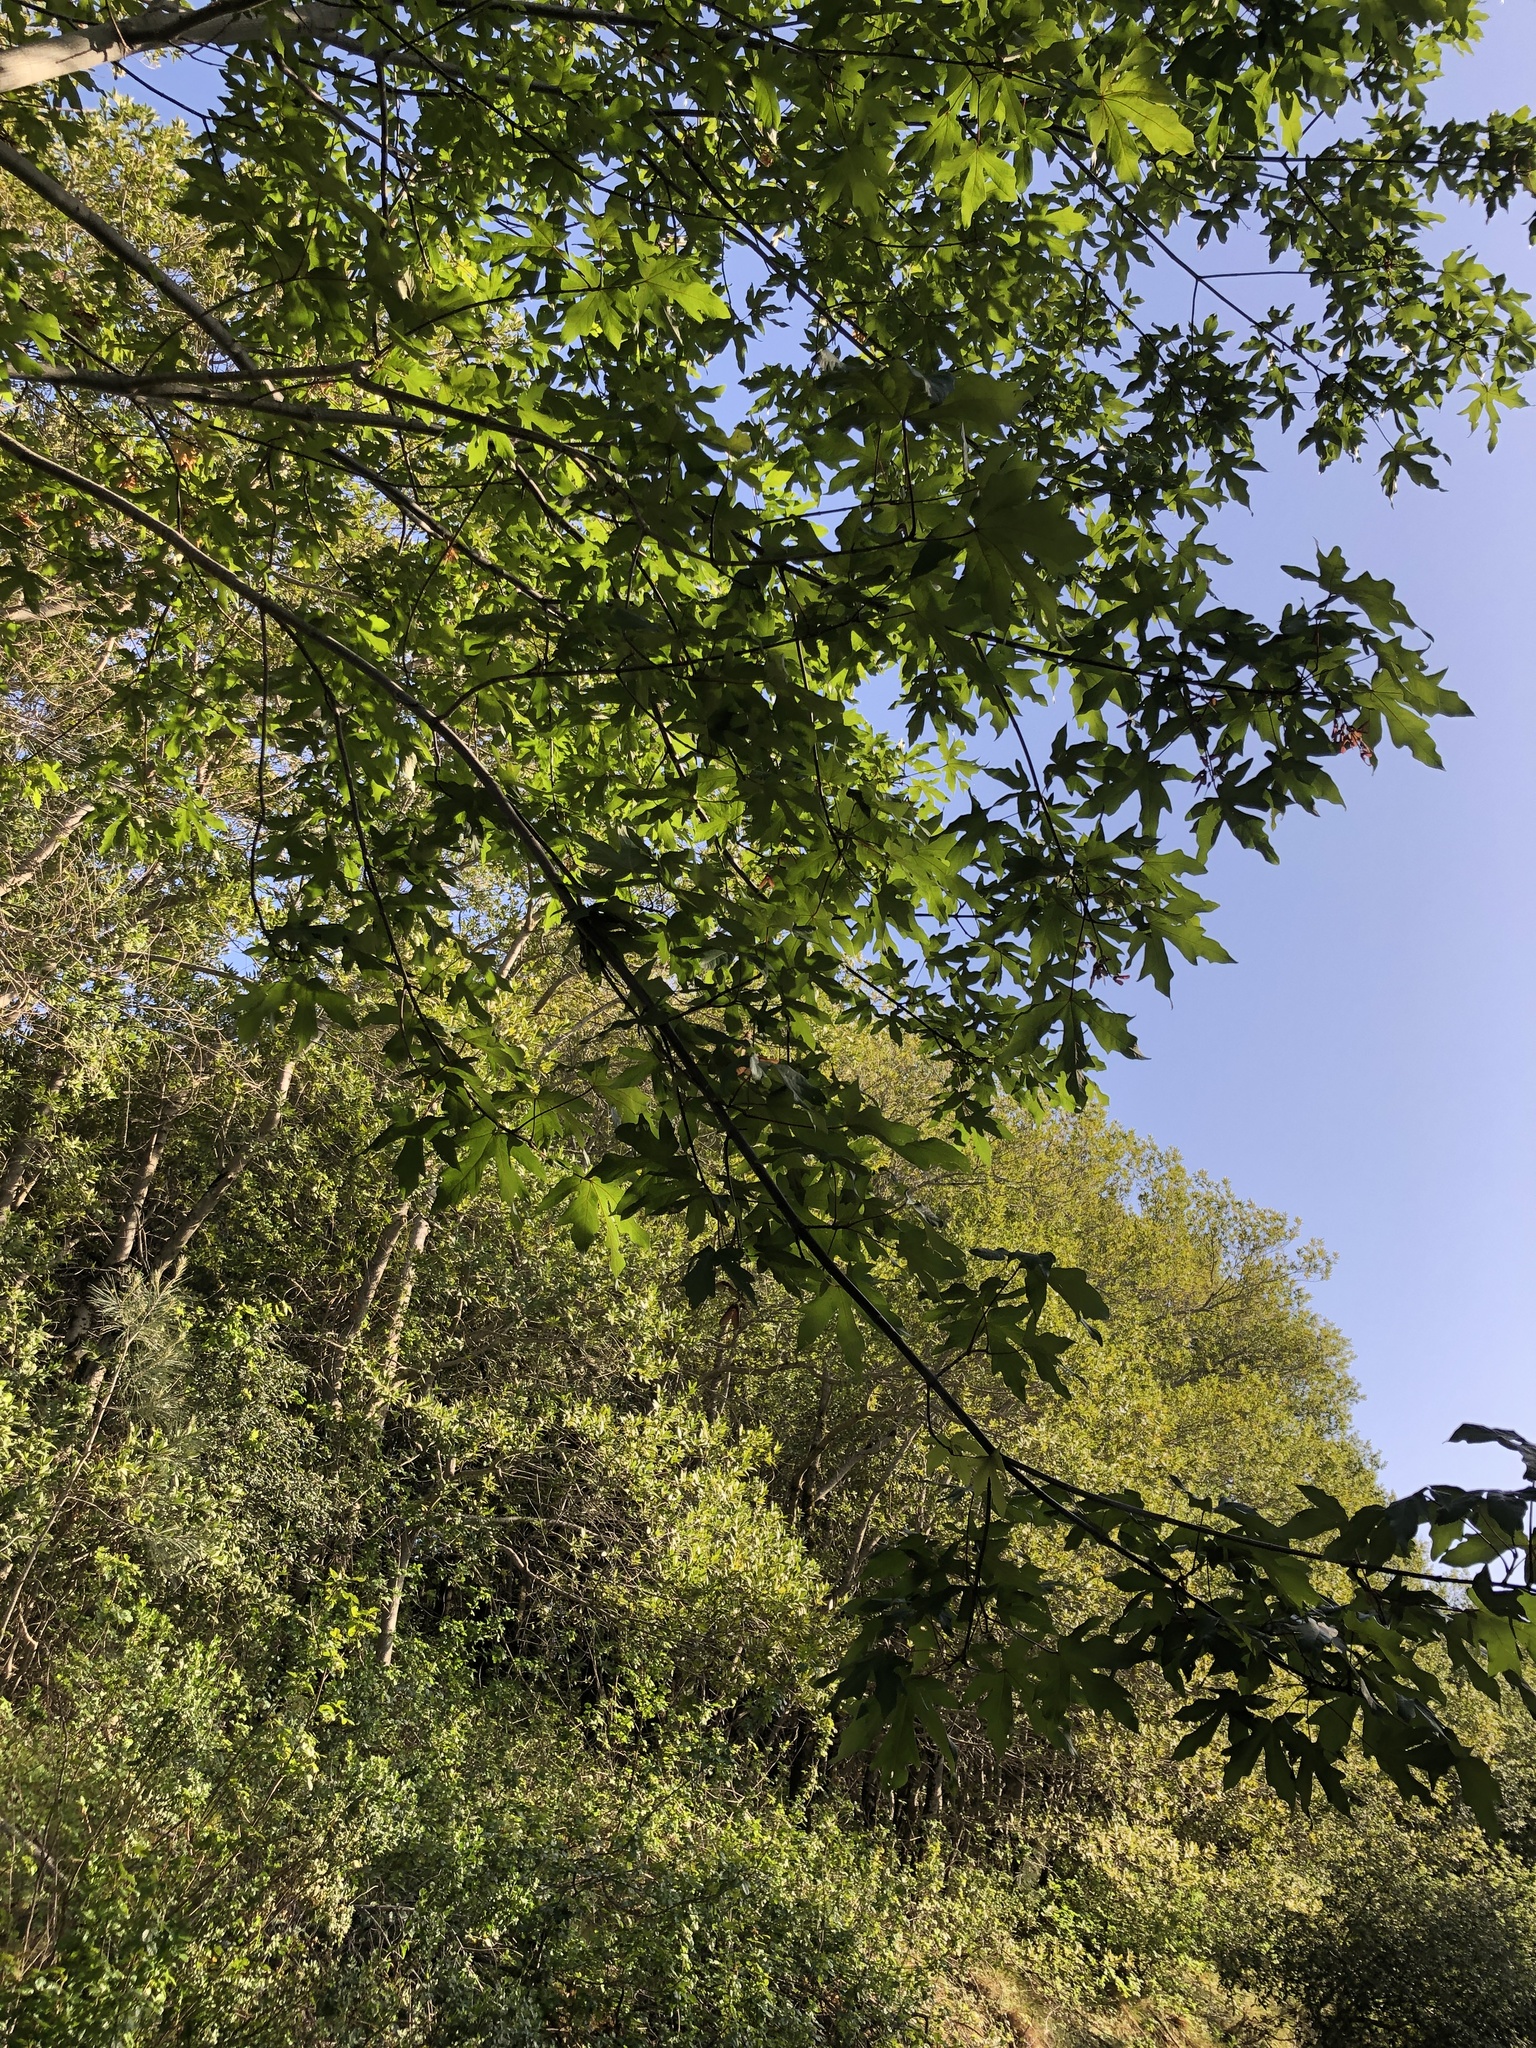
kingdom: Plantae
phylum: Tracheophyta
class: Magnoliopsida
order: Sapindales
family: Sapindaceae
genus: Acer
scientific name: Acer macrophyllum
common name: Oregon maple
